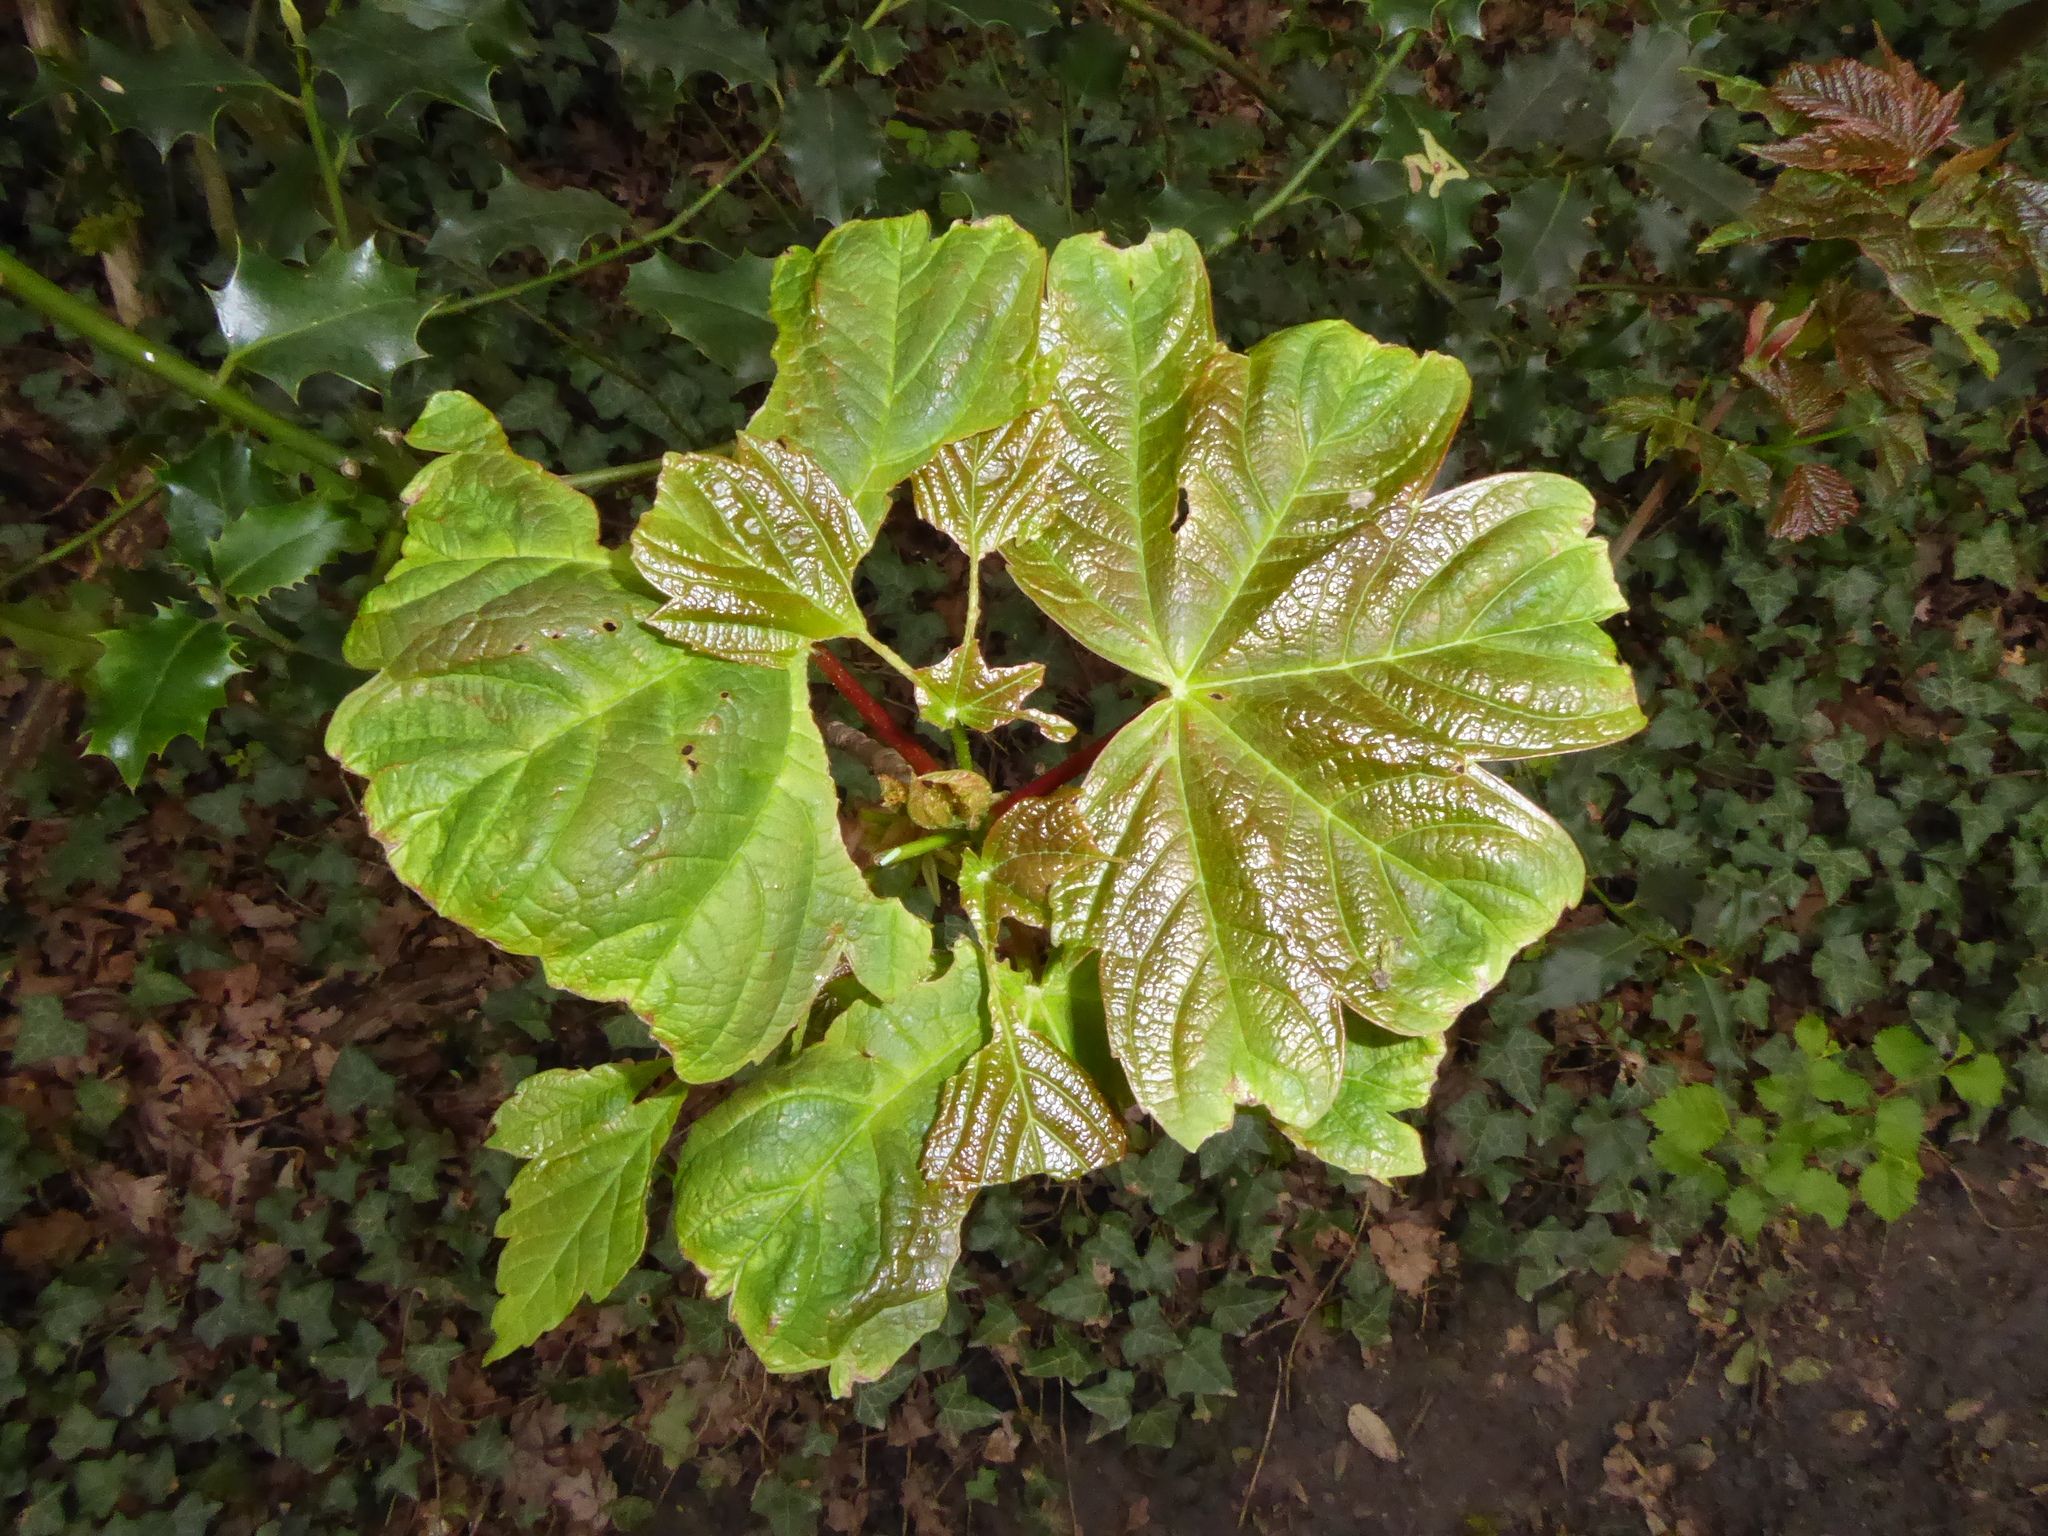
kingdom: Plantae
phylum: Tracheophyta
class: Magnoliopsida
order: Sapindales
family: Sapindaceae
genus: Acer
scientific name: Acer pseudoplatanus
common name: Sycamore
